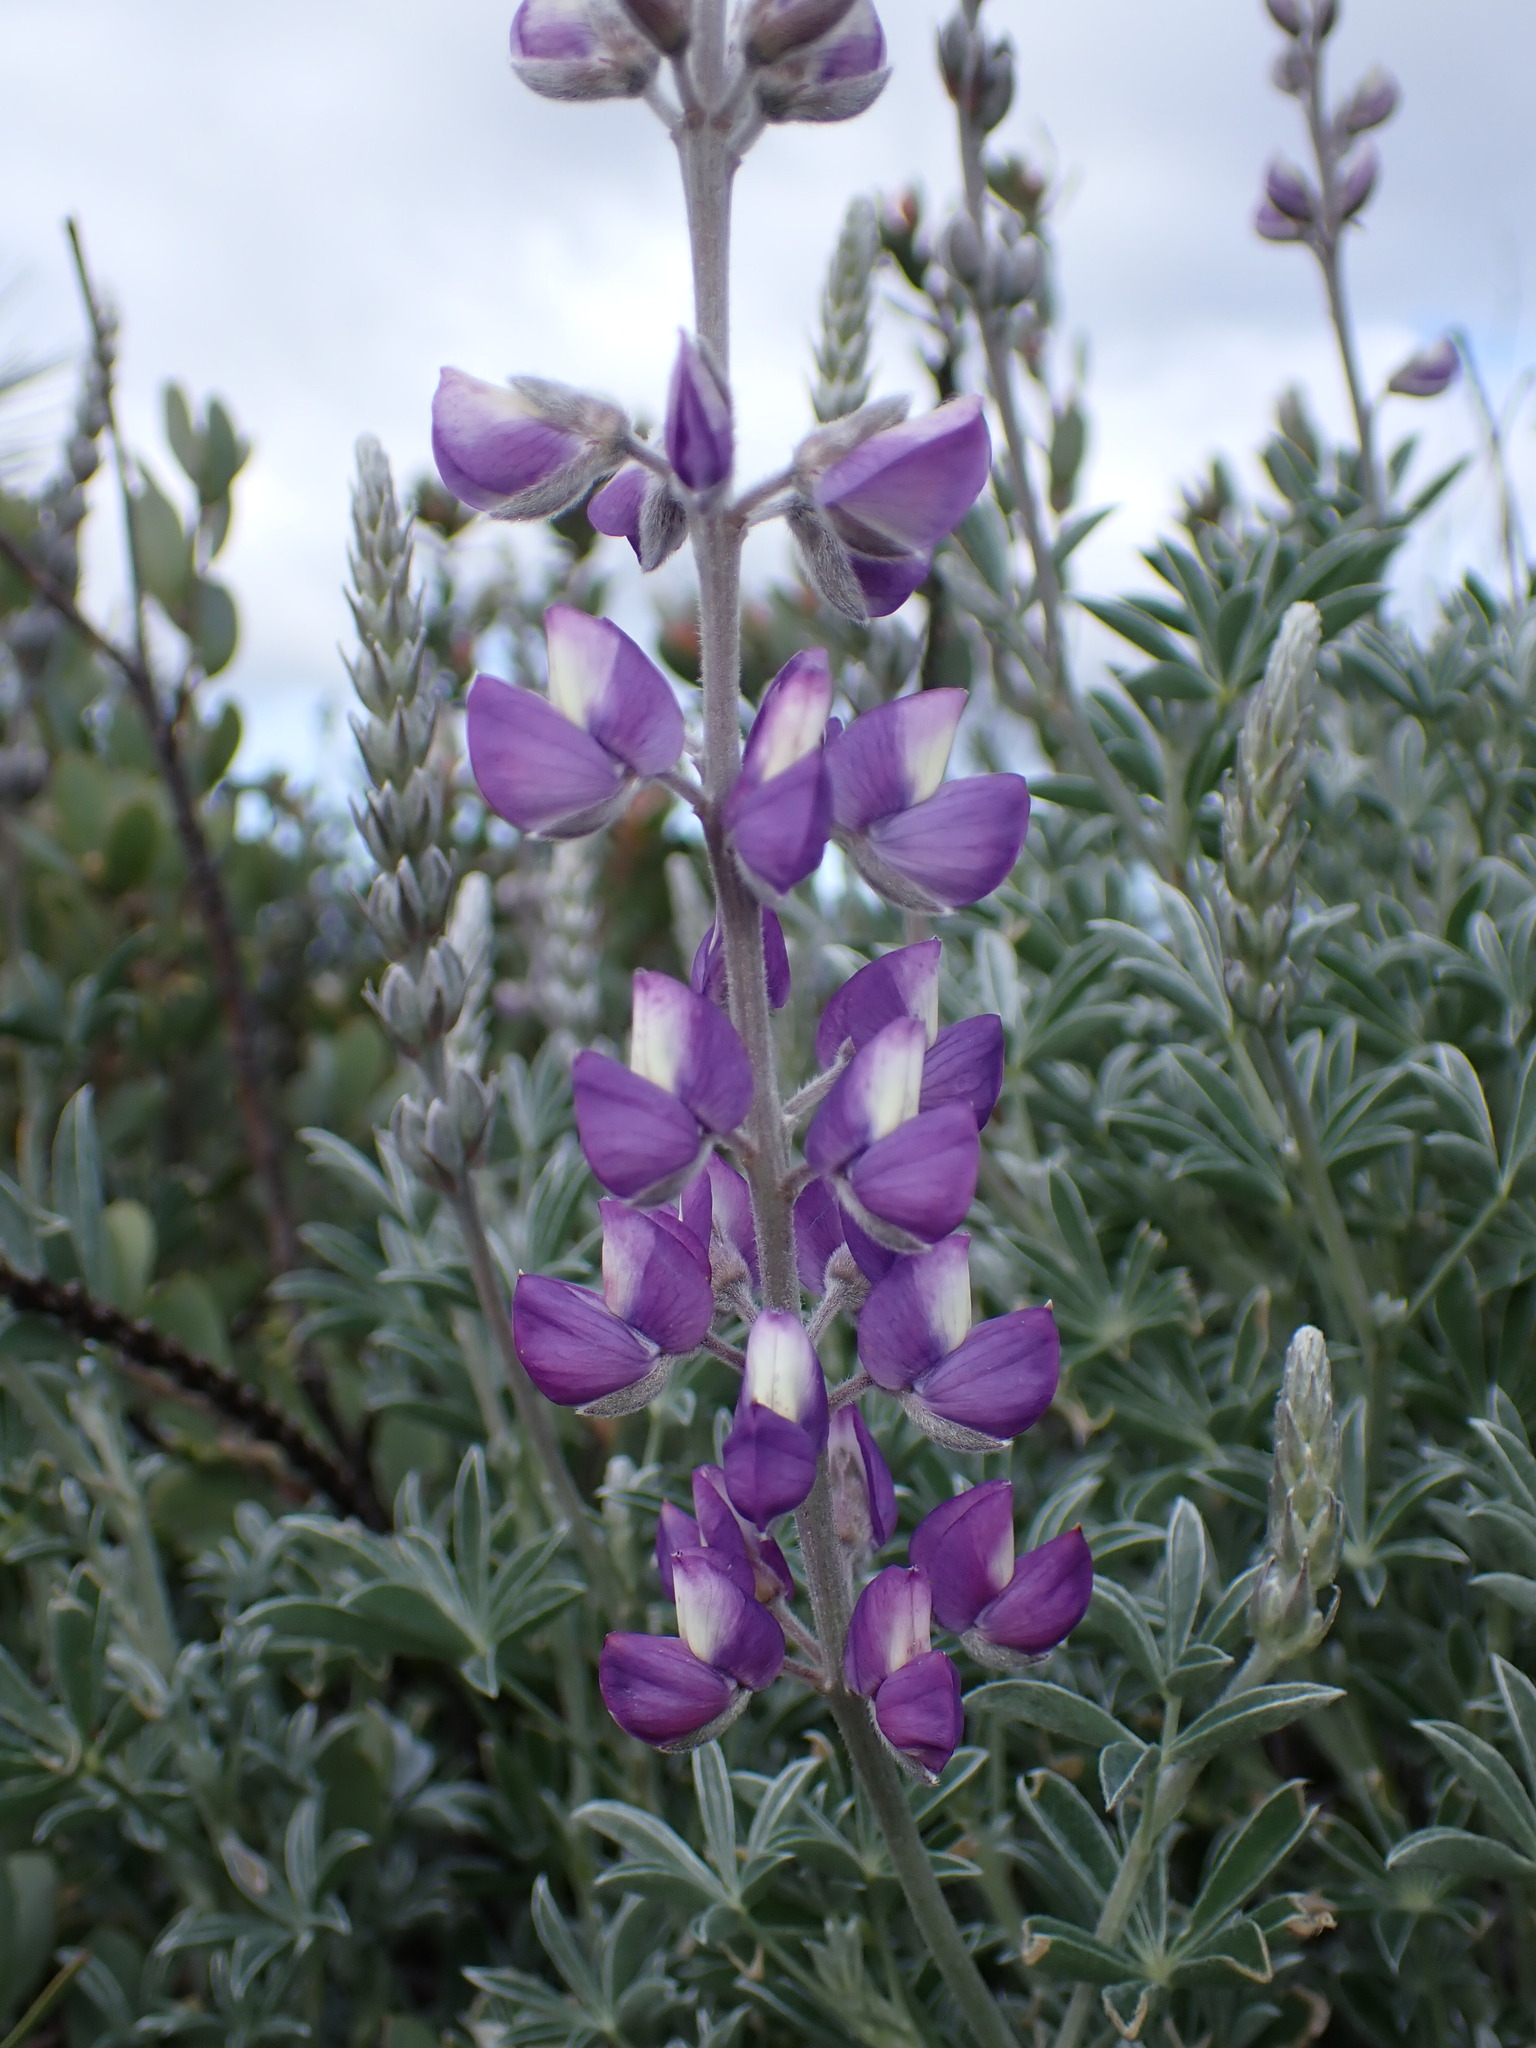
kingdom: Plantae
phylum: Tracheophyta
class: Magnoliopsida
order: Fabales
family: Fabaceae
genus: Lupinus
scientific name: Lupinus albifrons
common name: Foothill lupine
